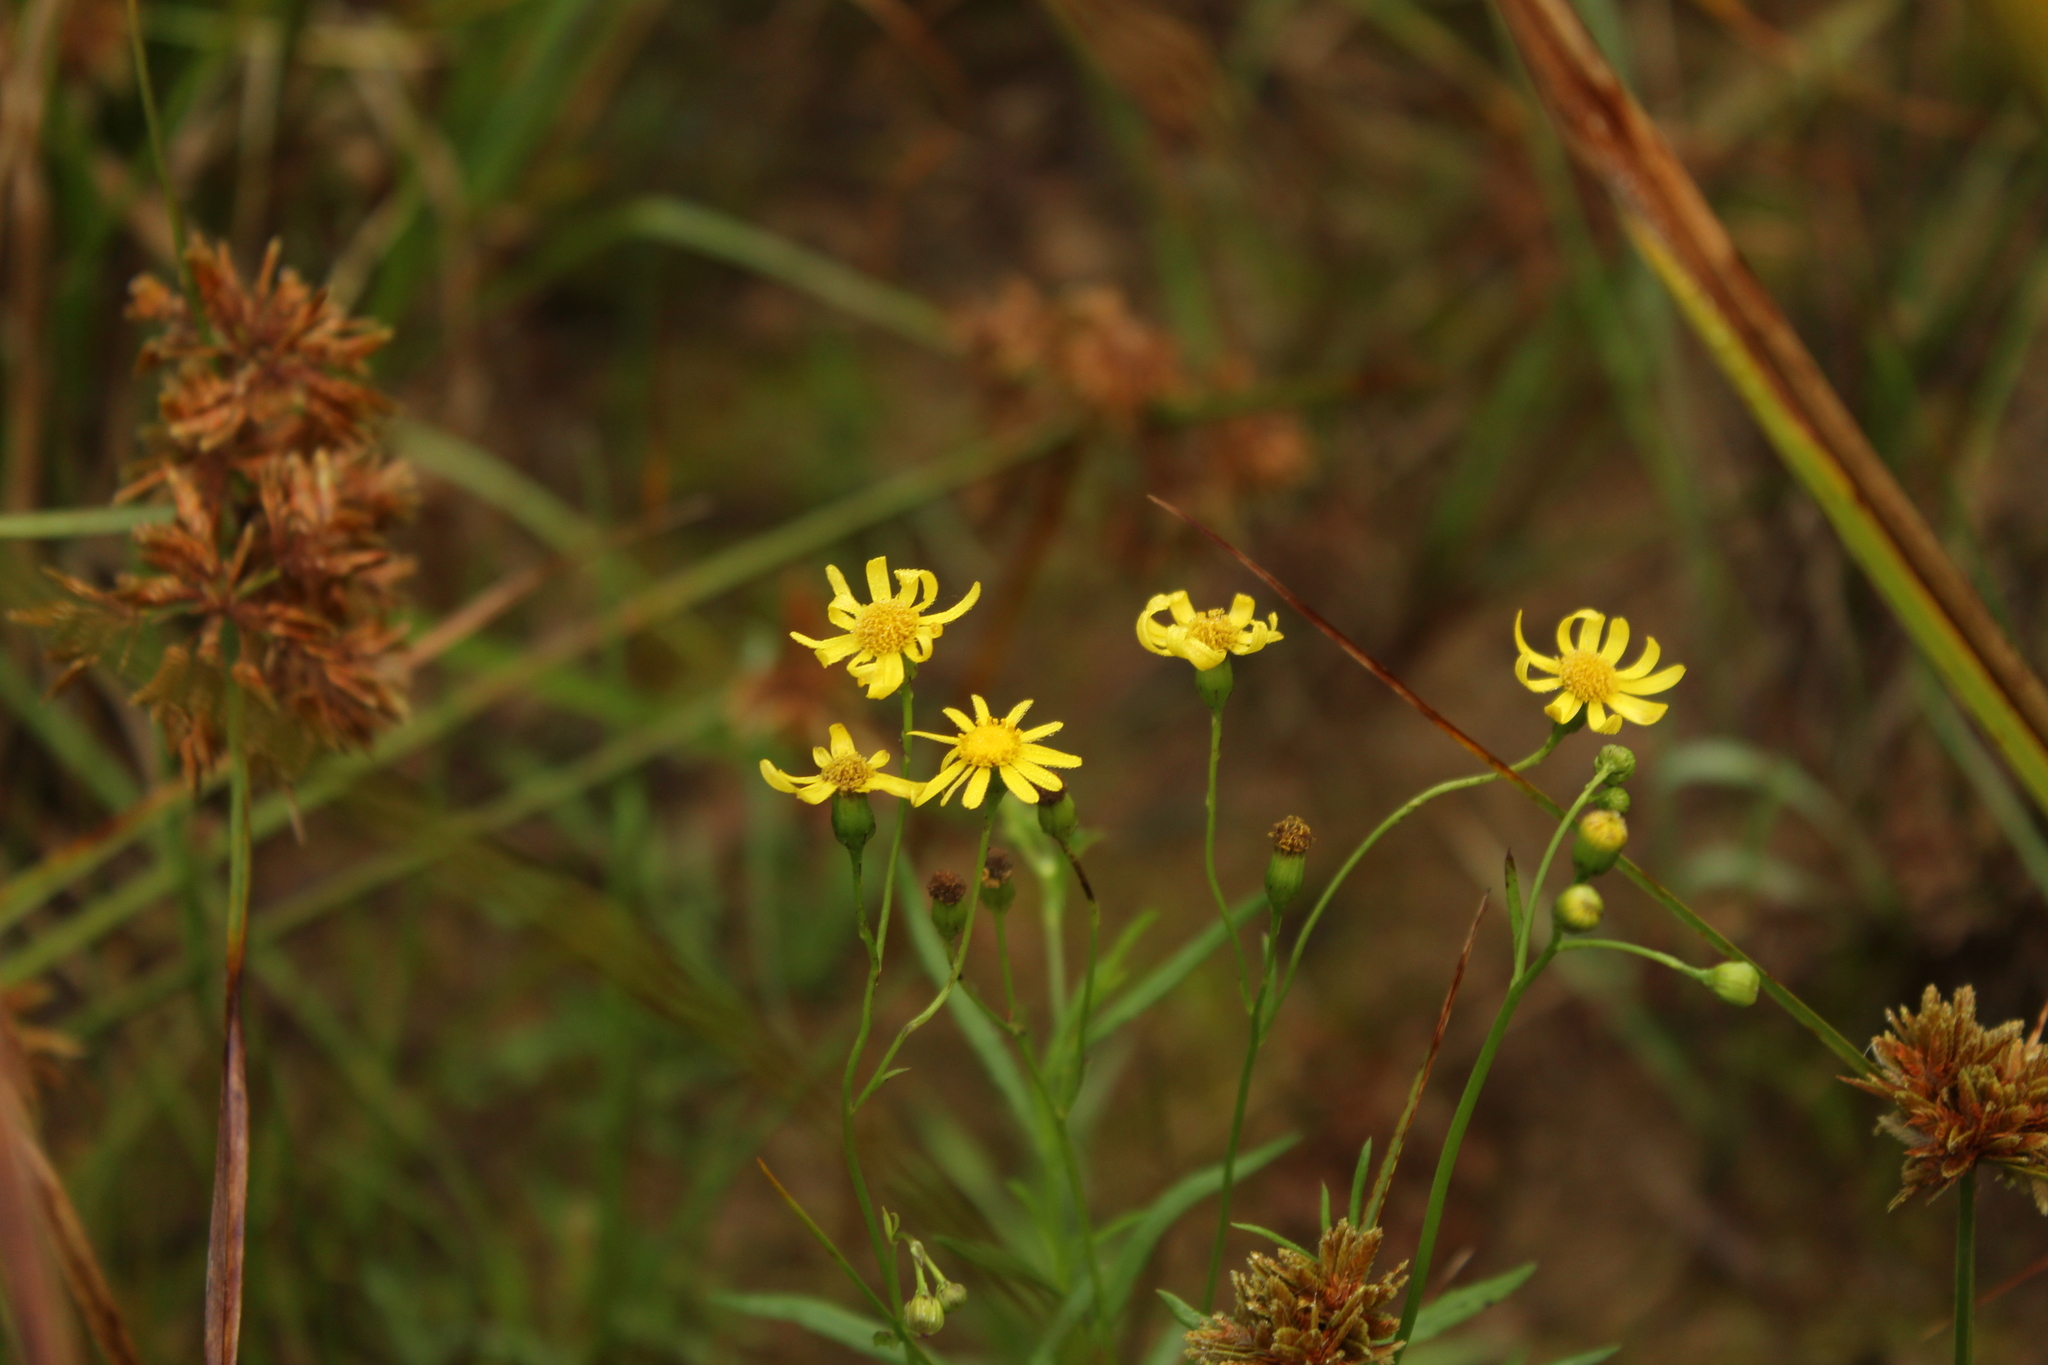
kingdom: Plantae
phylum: Tracheophyta
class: Magnoliopsida
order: Asterales
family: Asteraceae
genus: Senecio
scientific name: Senecio madagascariensis
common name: Madagascar ragwort
